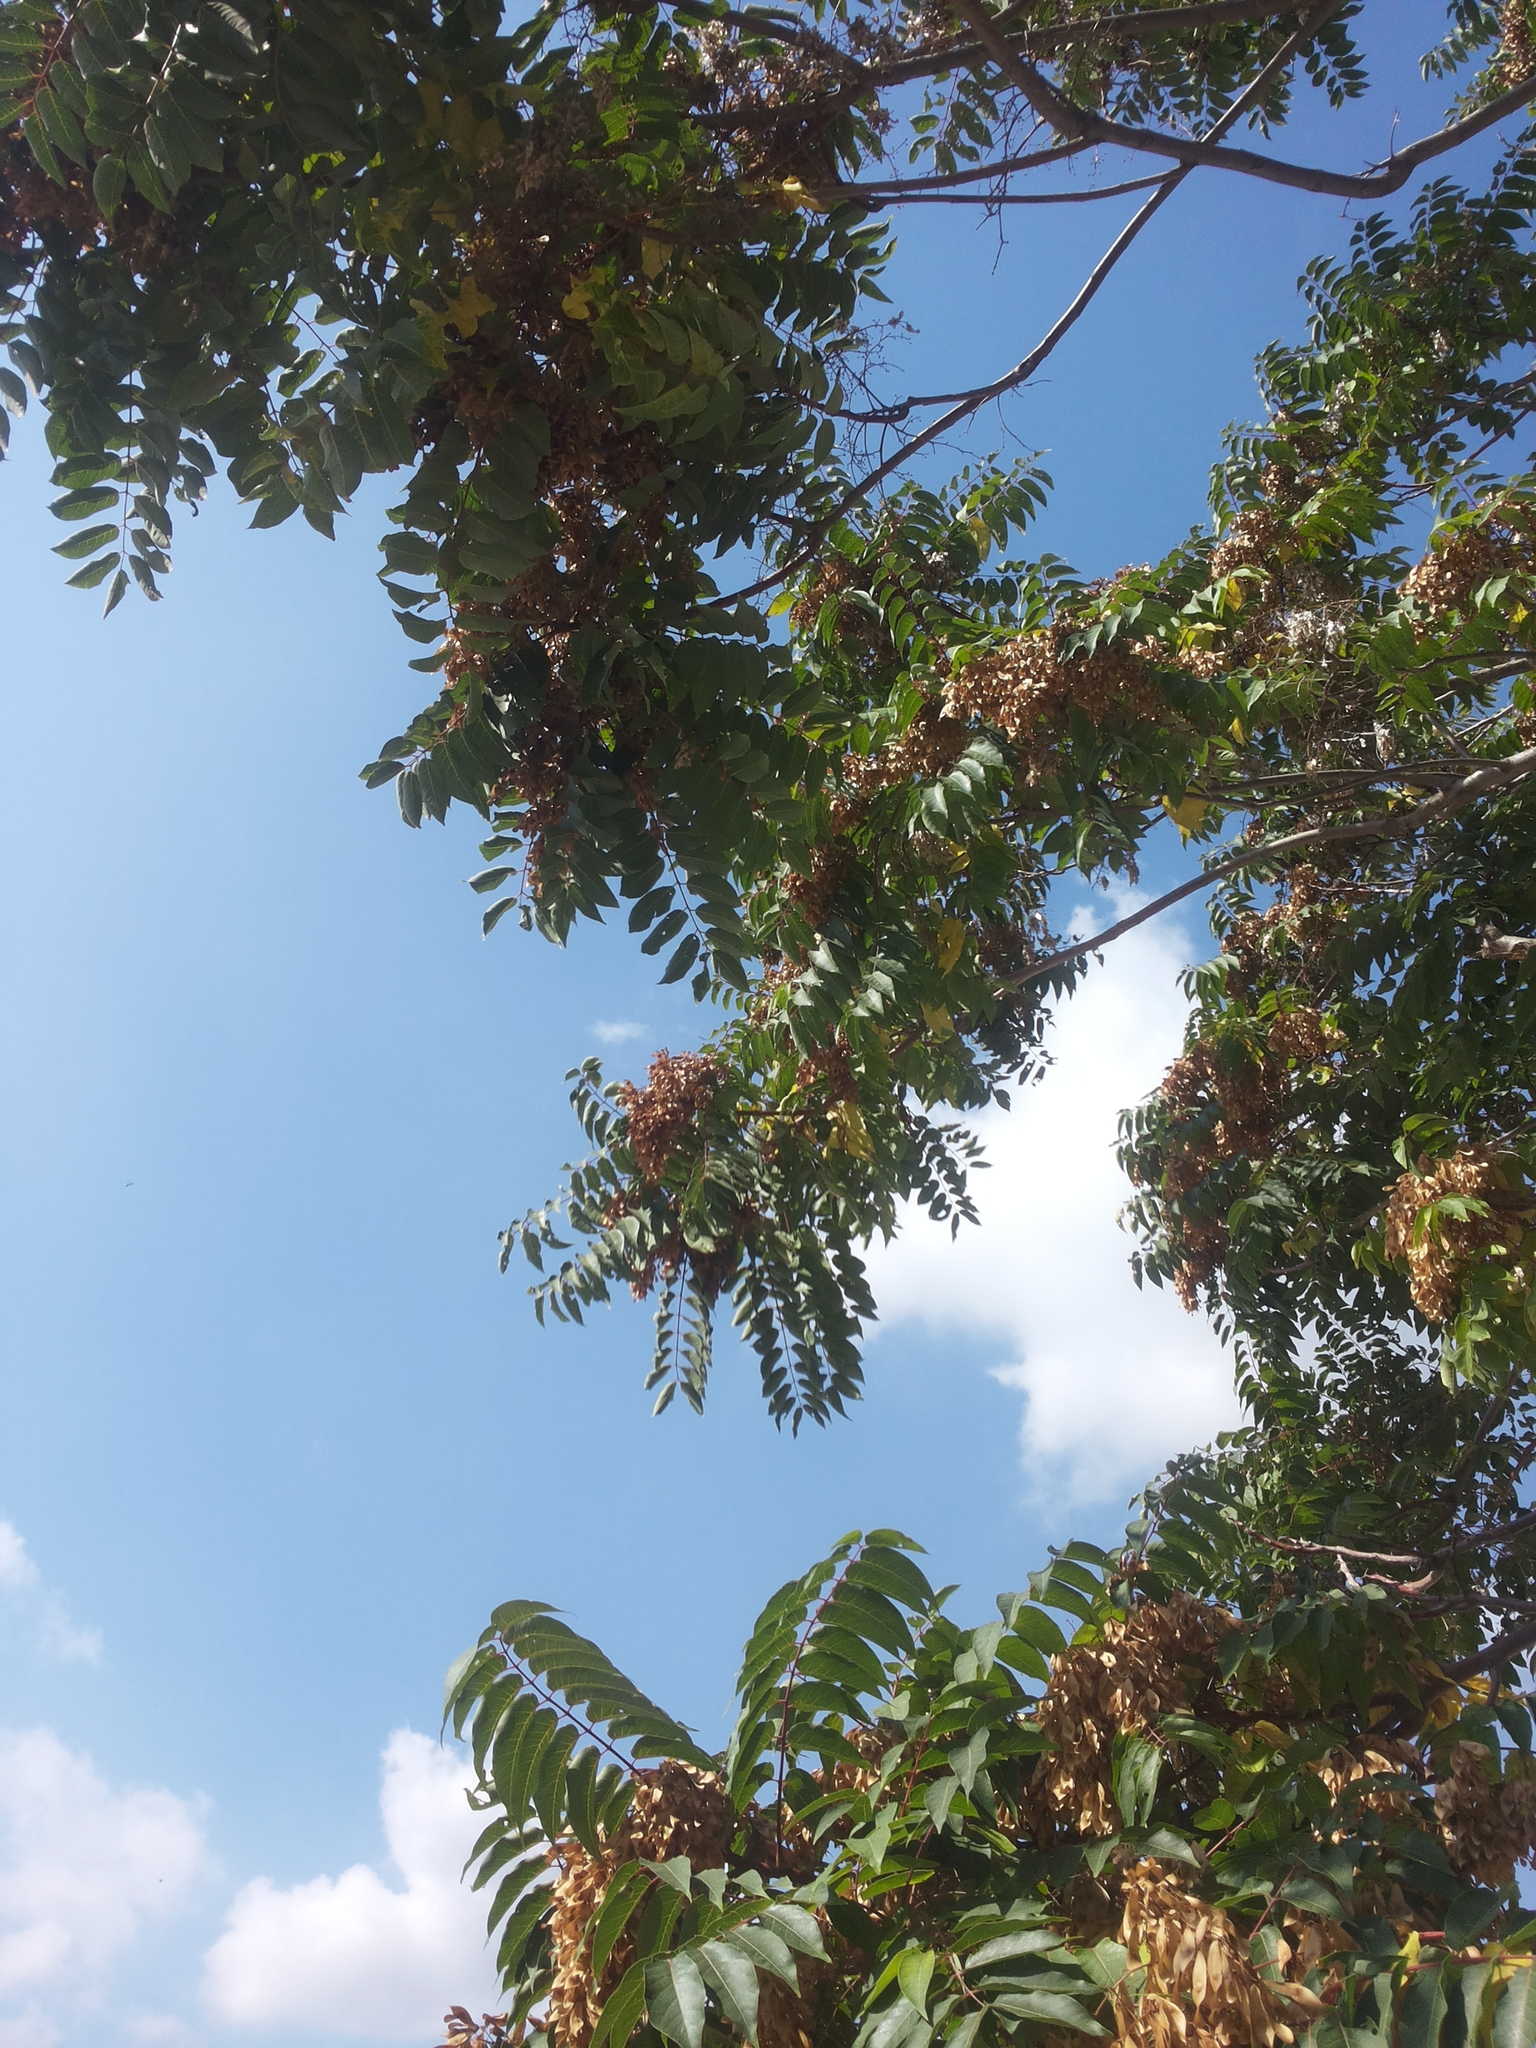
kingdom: Plantae
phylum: Tracheophyta
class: Magnoliopsida
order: Sapindales
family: Simaroubaceae
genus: Ailanthus
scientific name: Ailanthus altissima
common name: Tree-of-heaven
